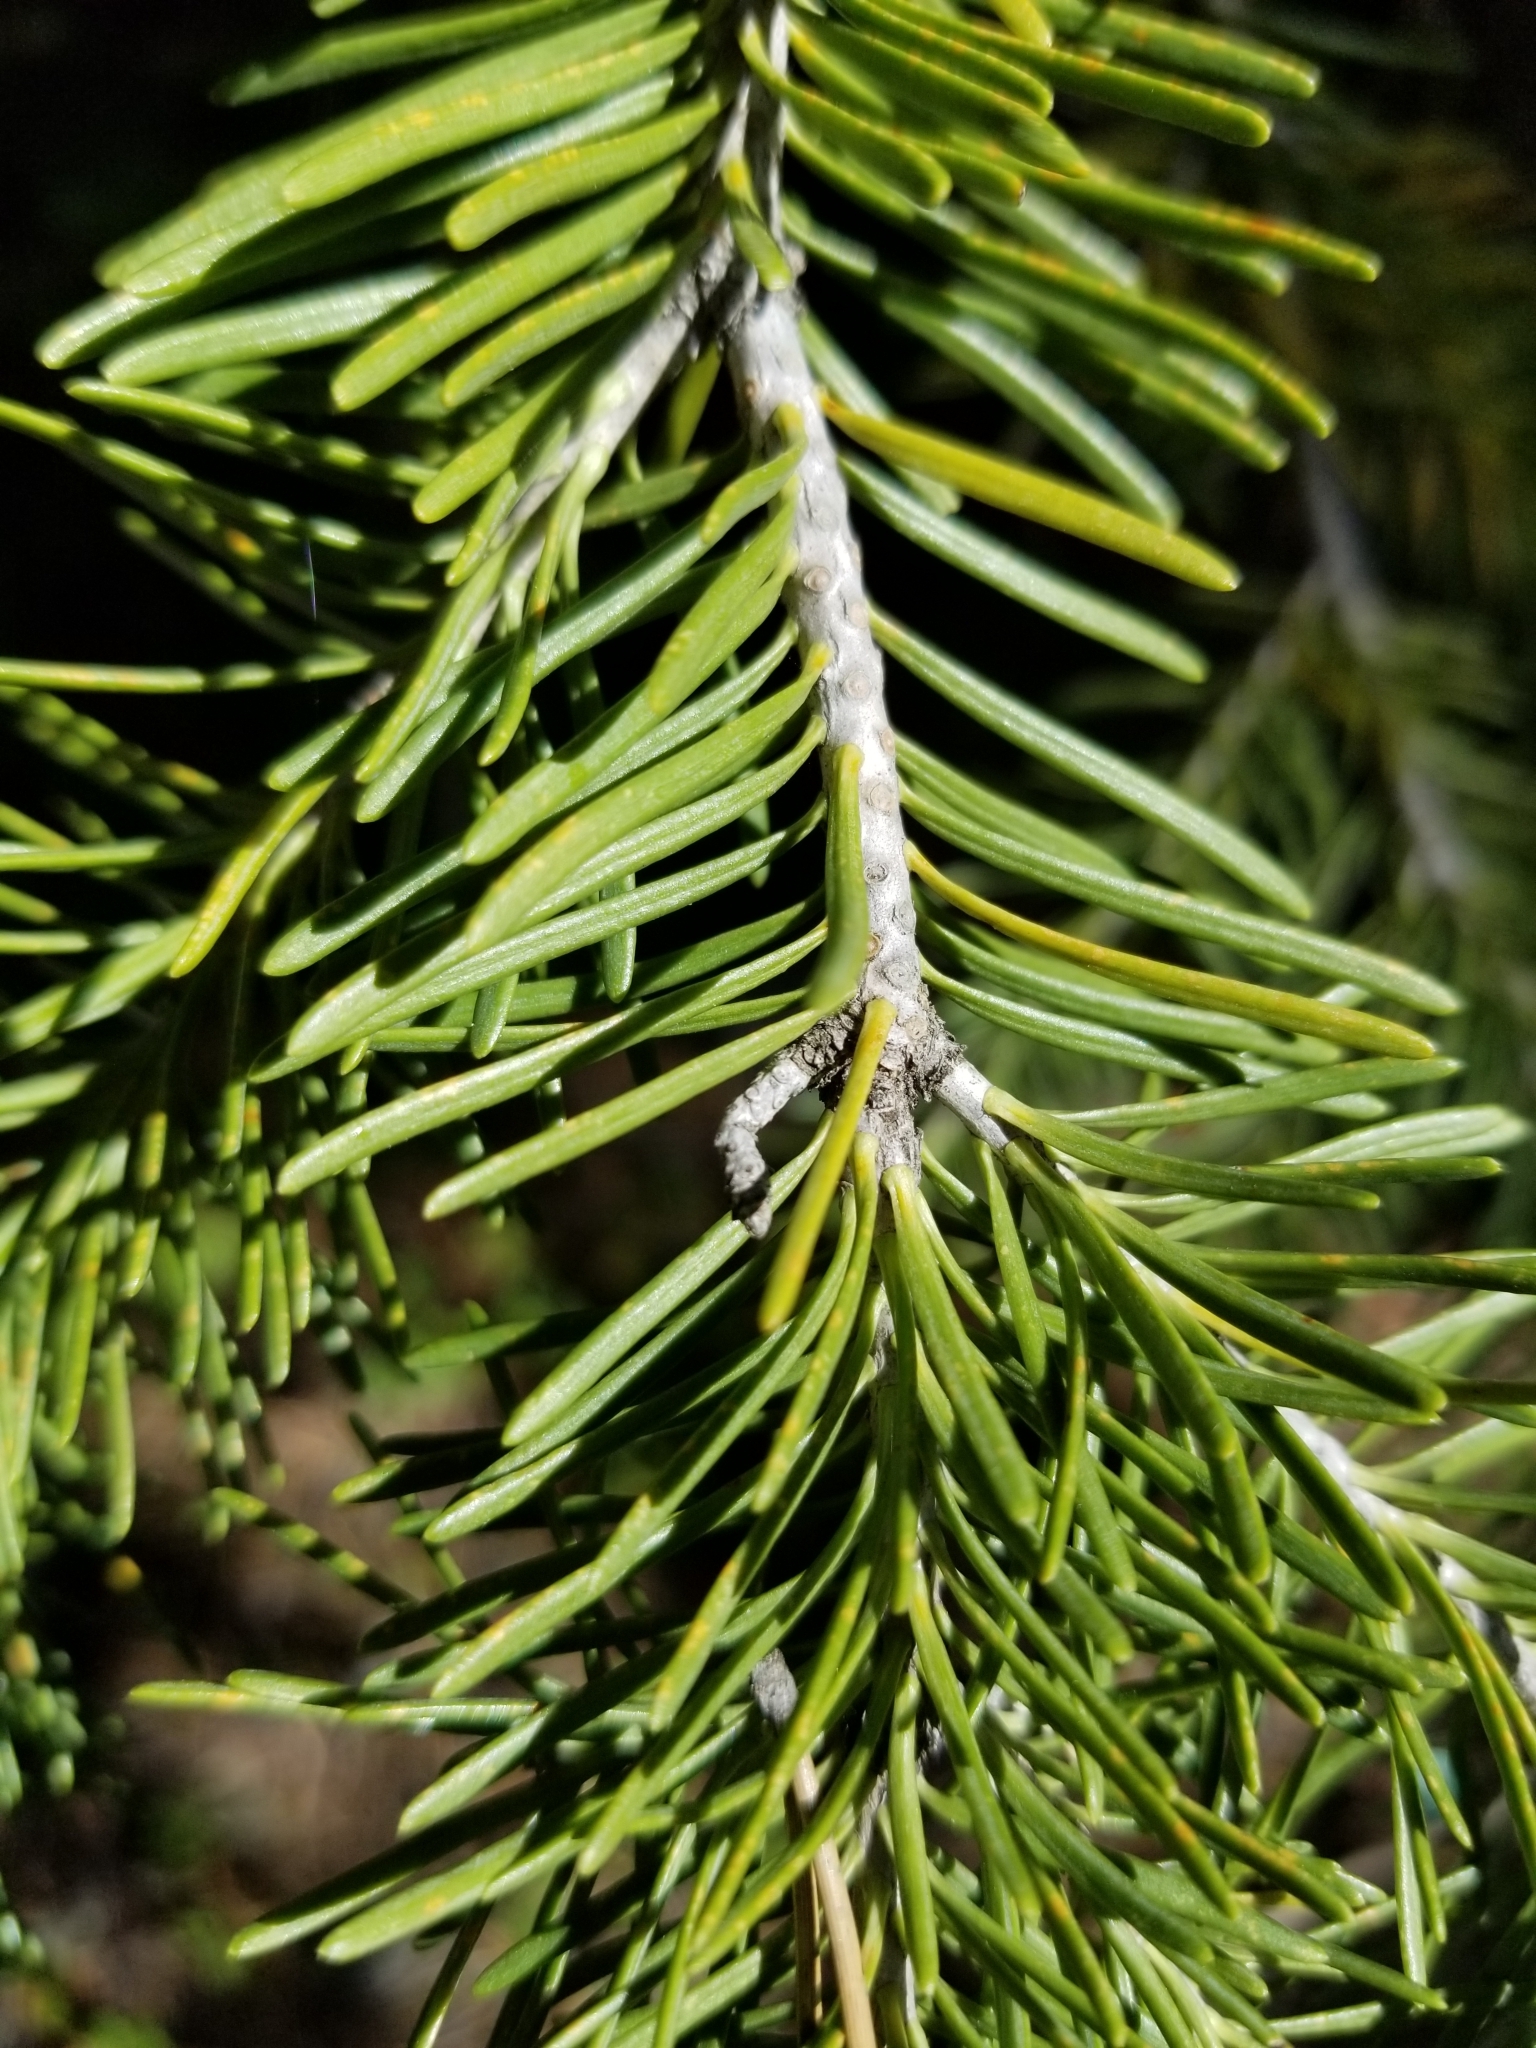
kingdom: Plantae
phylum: Tracheophyta
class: Pinopsida
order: Pinales
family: Pinaceae
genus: Abies
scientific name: Abies lasiocarpa
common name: Subalpine fir
